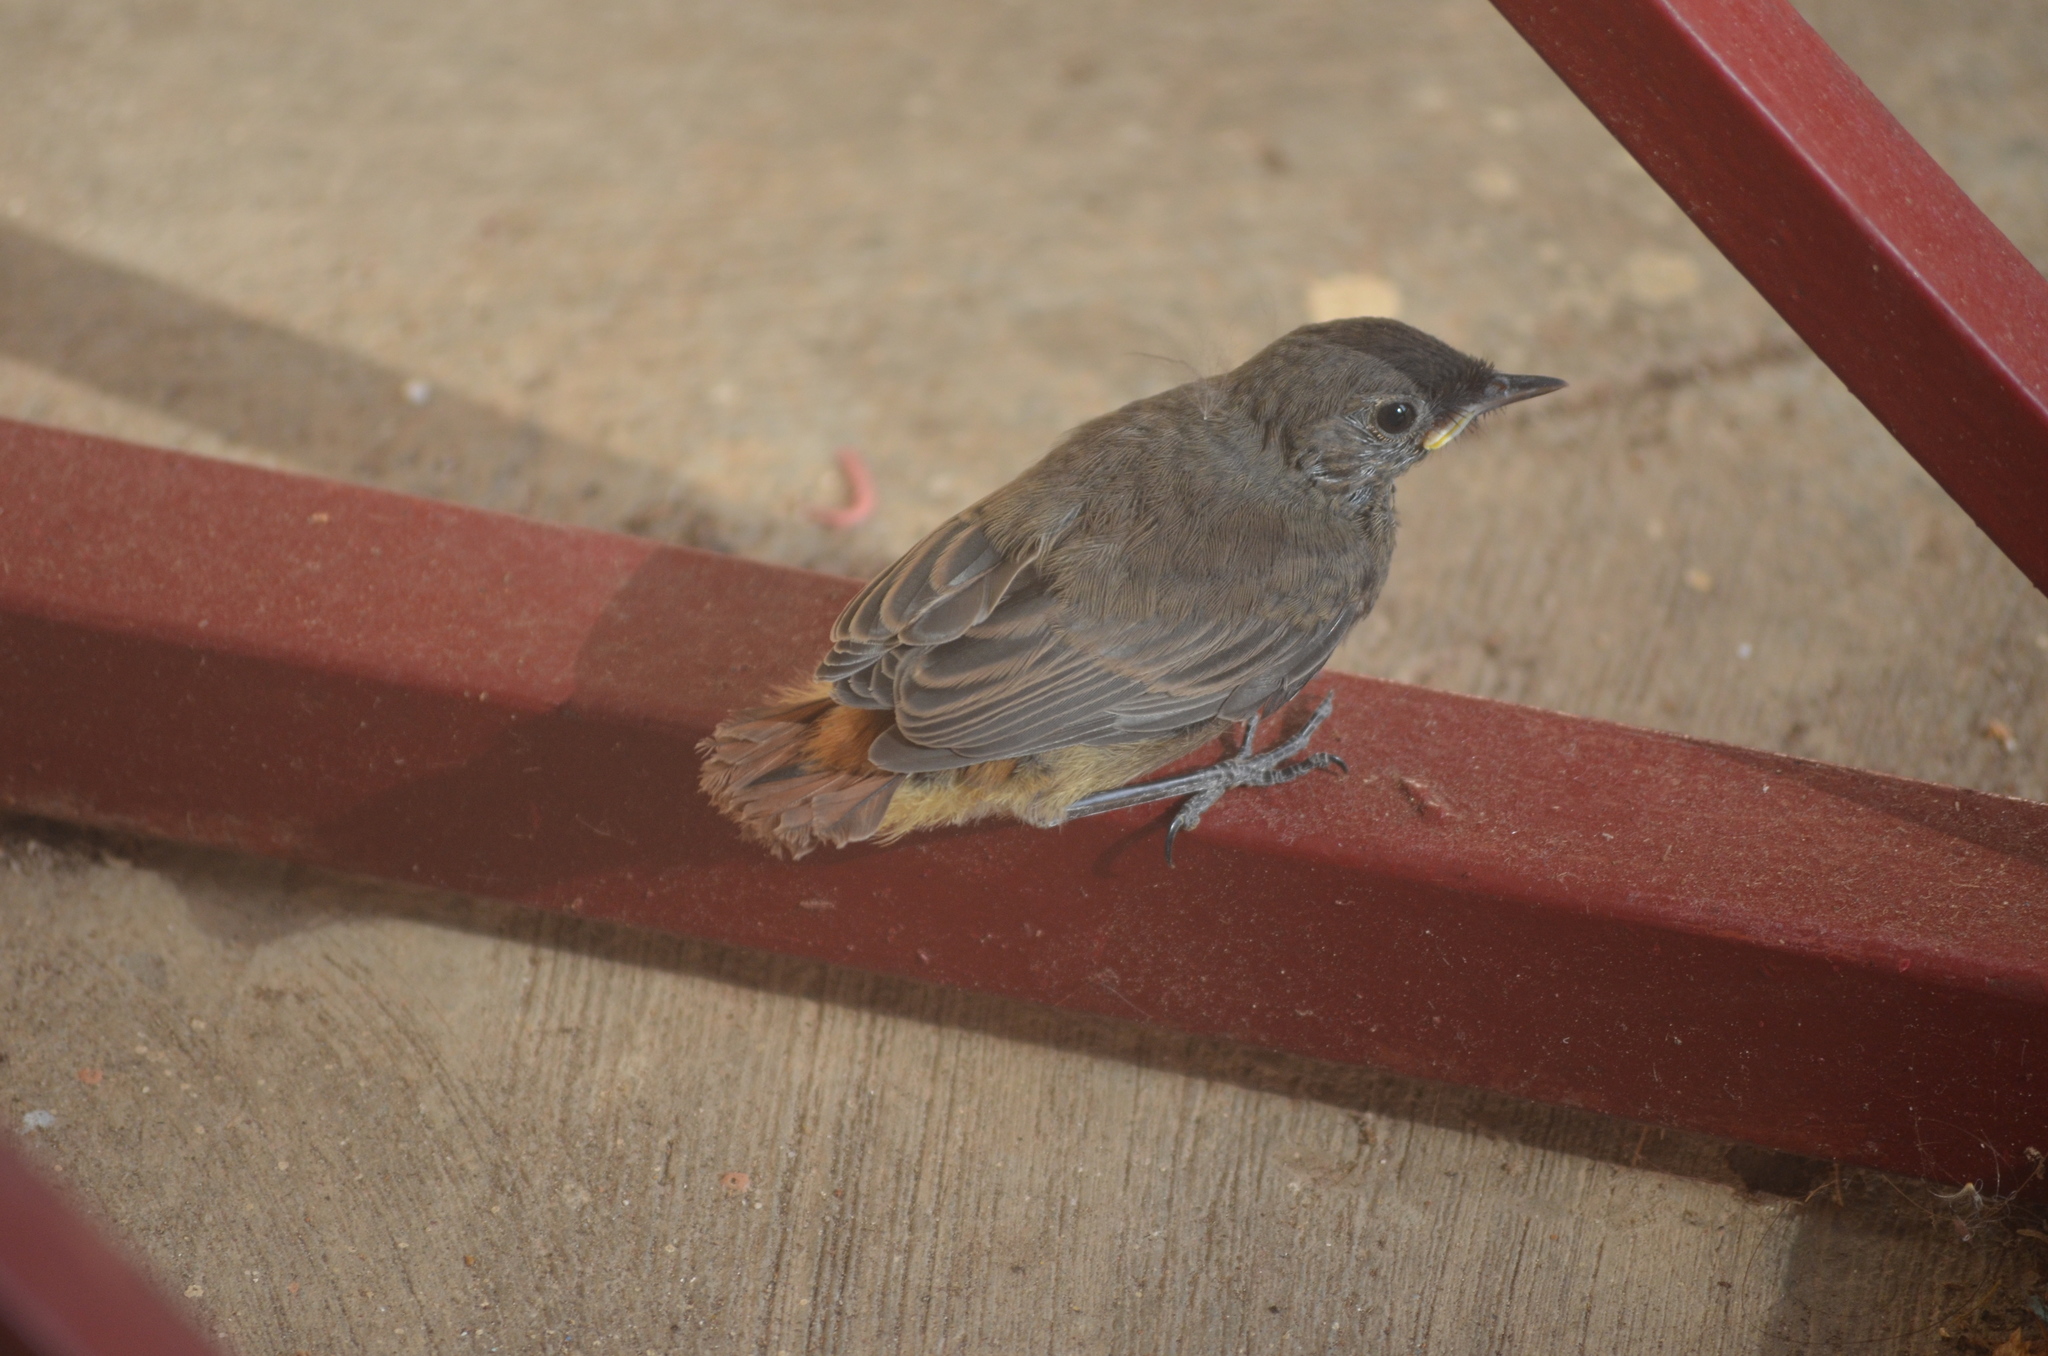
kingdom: Animalia
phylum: Chordata
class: Aves
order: Passeriformes
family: Muscicapidae
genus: Phoenicurus
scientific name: Phoenicurus ochruros
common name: Black redstart
